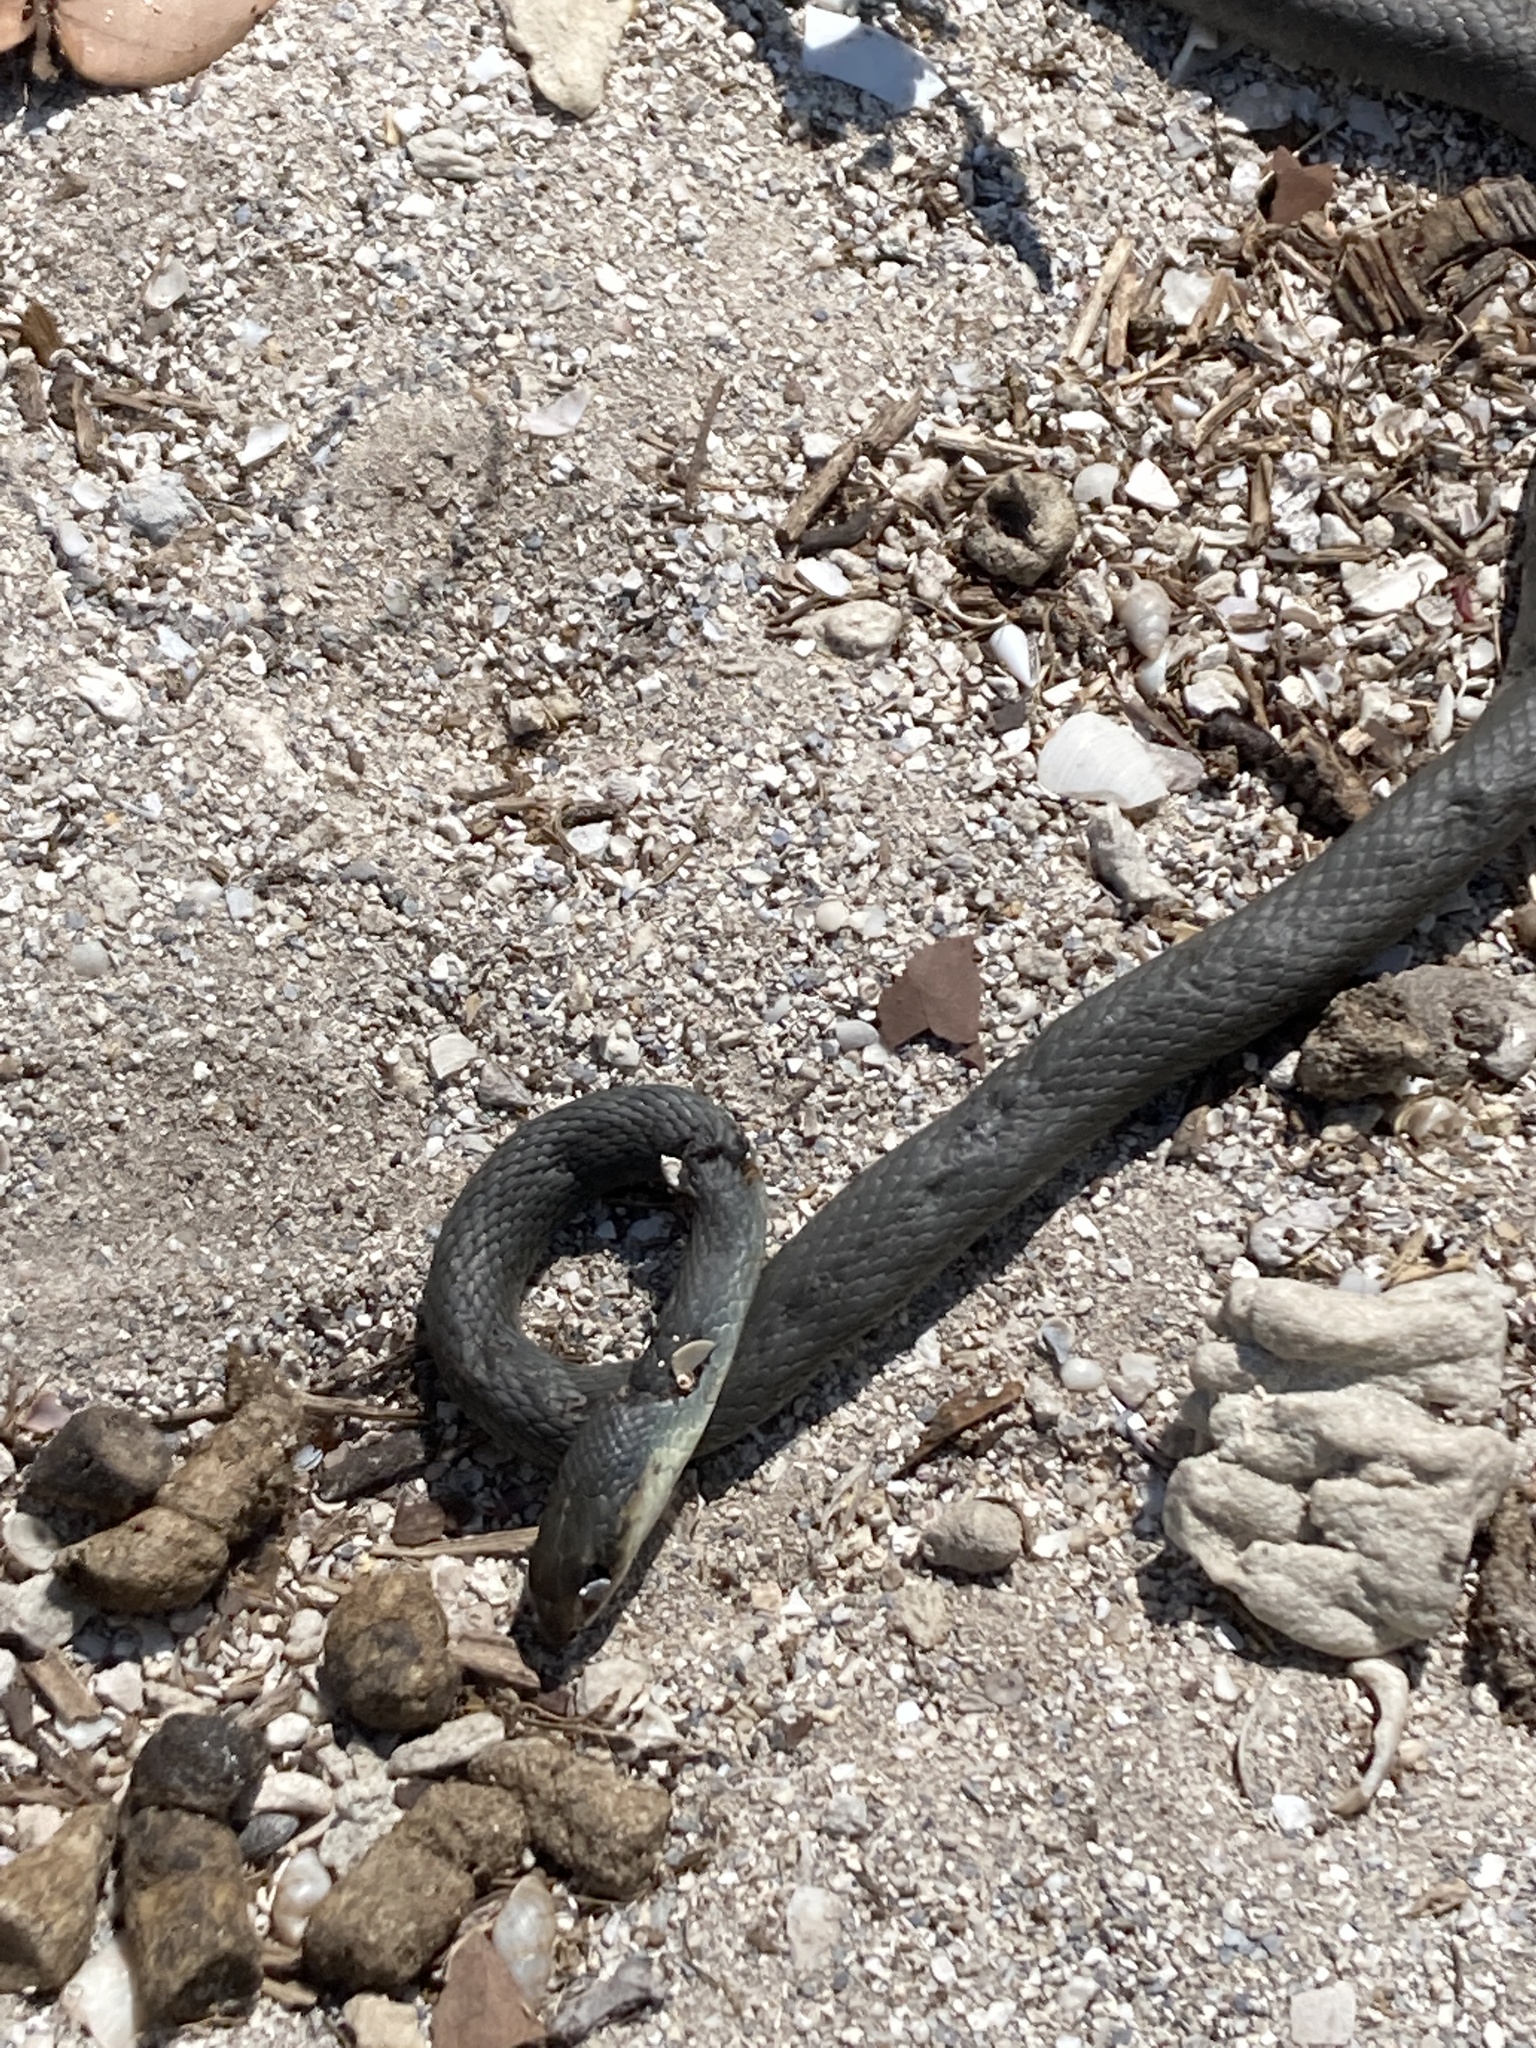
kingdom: Animalia
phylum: Chordata
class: Squamata
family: Colubridae
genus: Coluber
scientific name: Coluber constrictor
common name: Eastern racer
